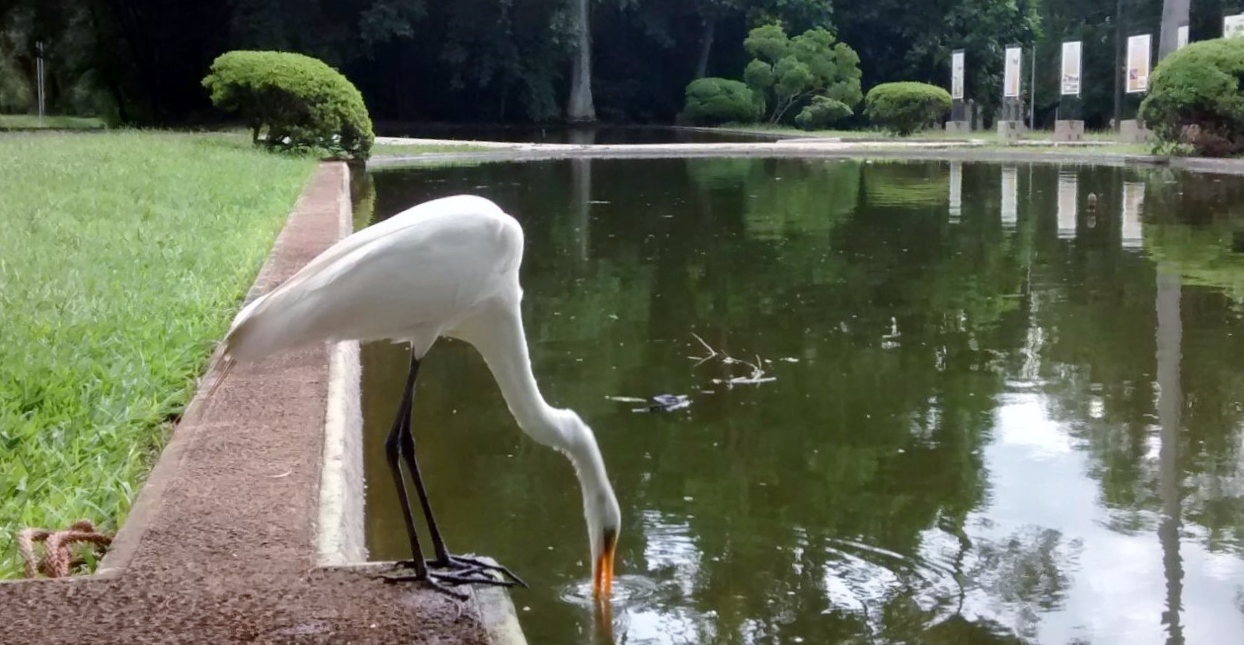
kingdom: Animalia
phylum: Chordata
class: Aves
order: Pelecaniformes
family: Ardeidae
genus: Ardea
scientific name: Ardea alba
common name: Great egret
